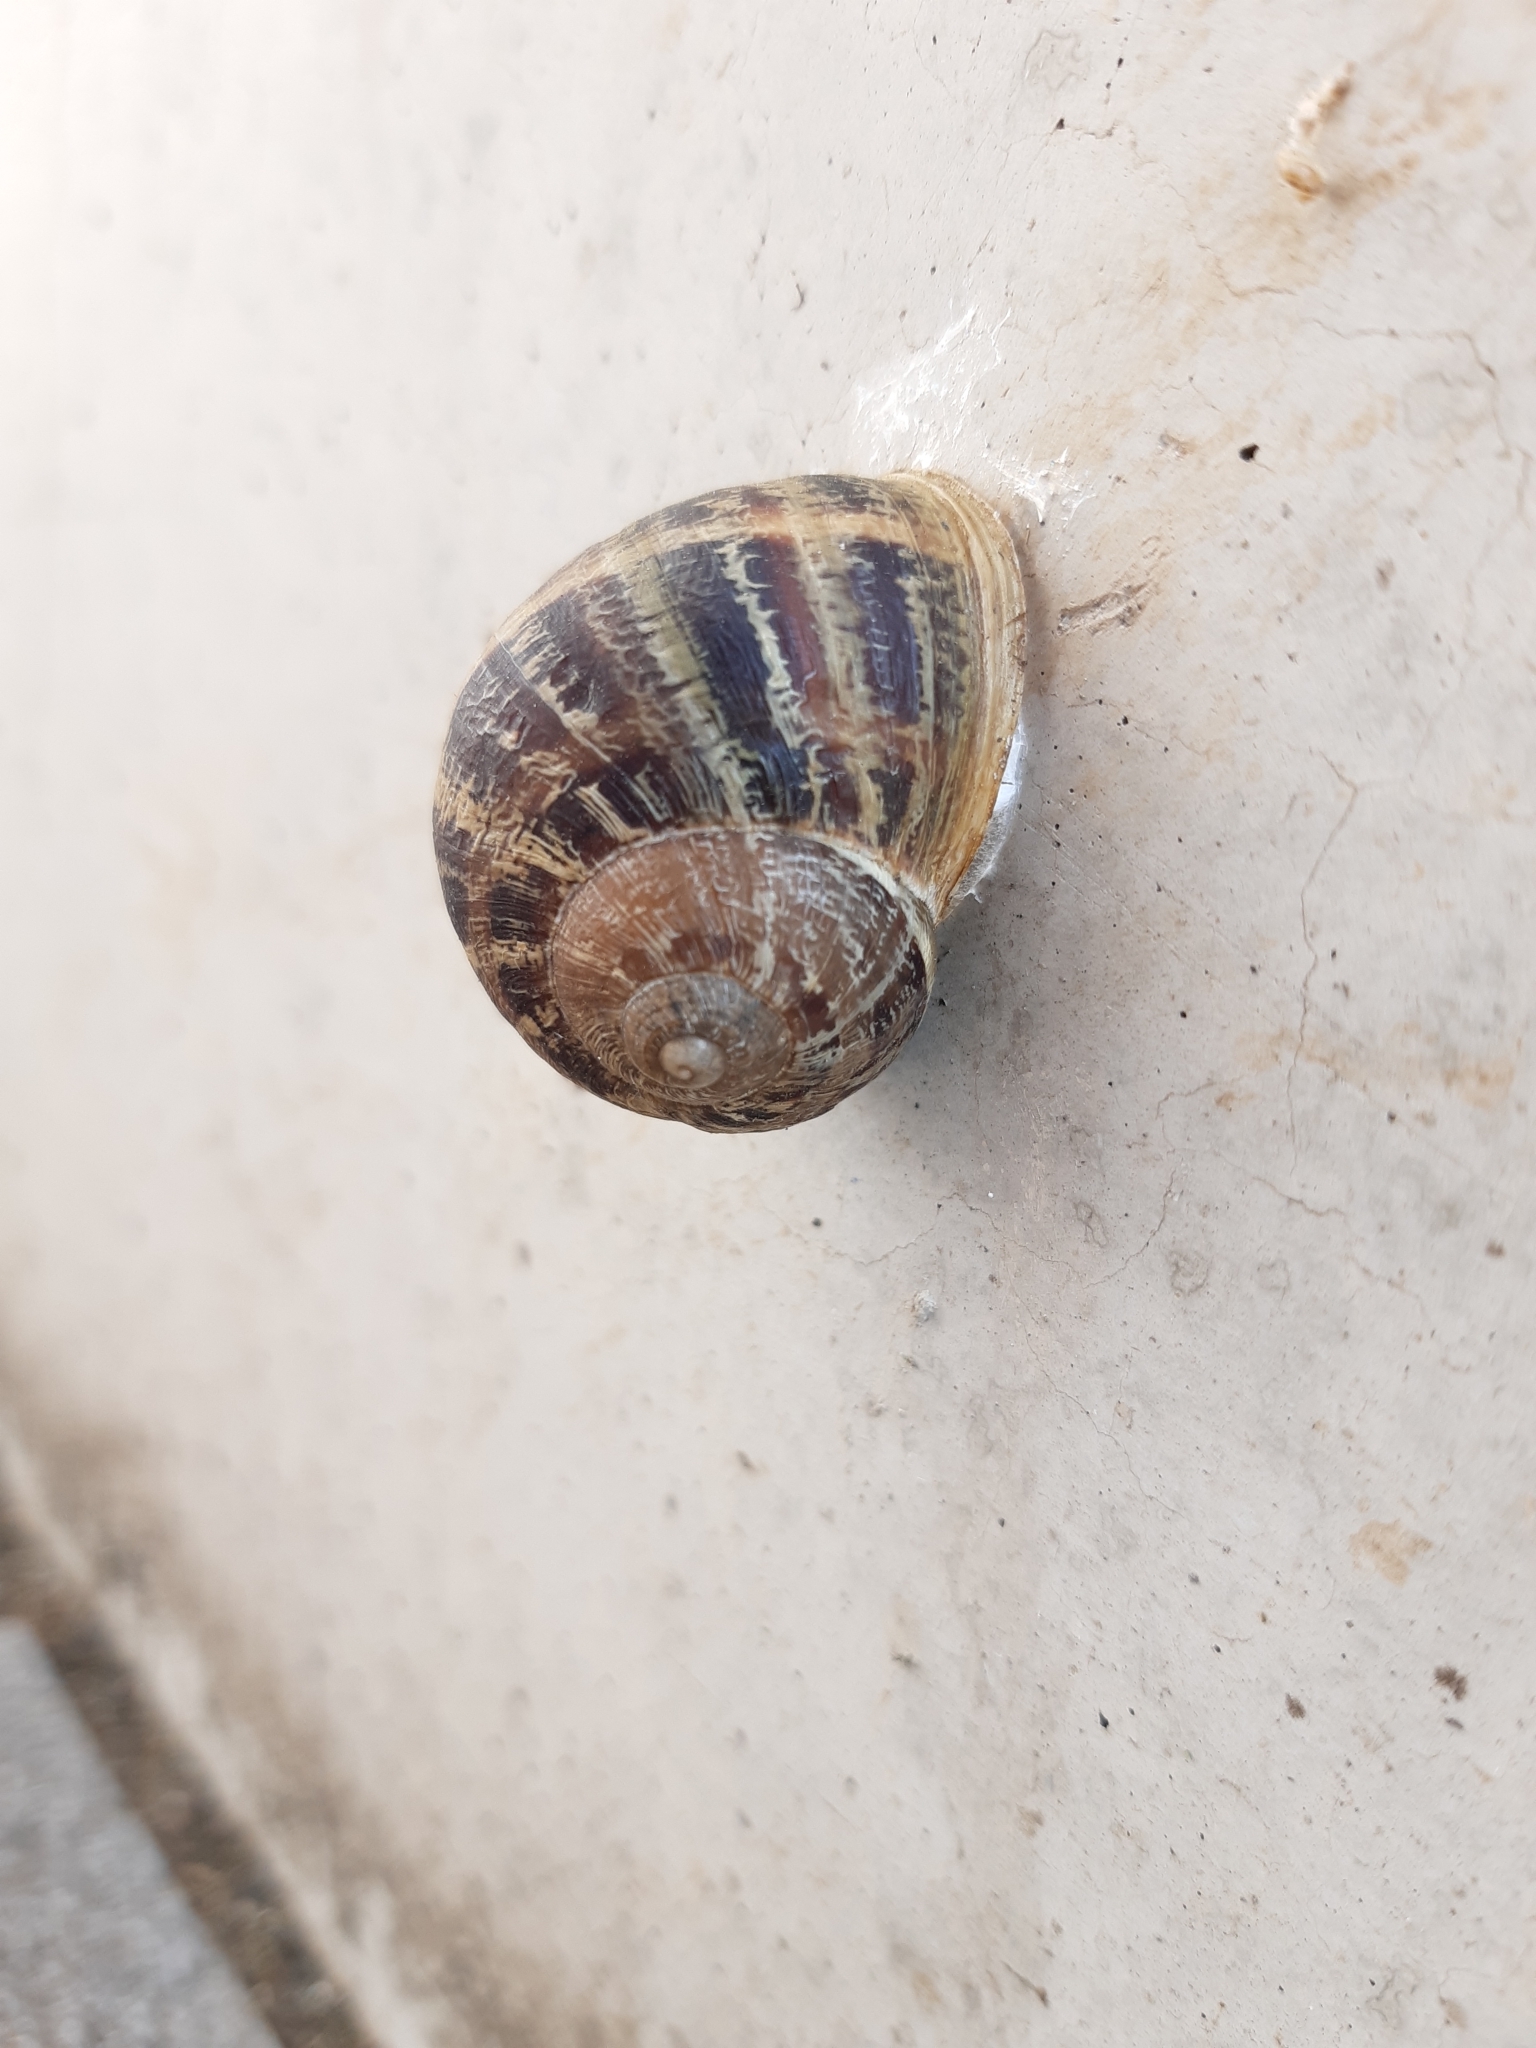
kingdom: Animalia
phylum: Mollusca
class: Gastropoda
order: Stylommatophora
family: Helicidae
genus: Cornu
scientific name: Cornu aspersum
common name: Brown garden snail
